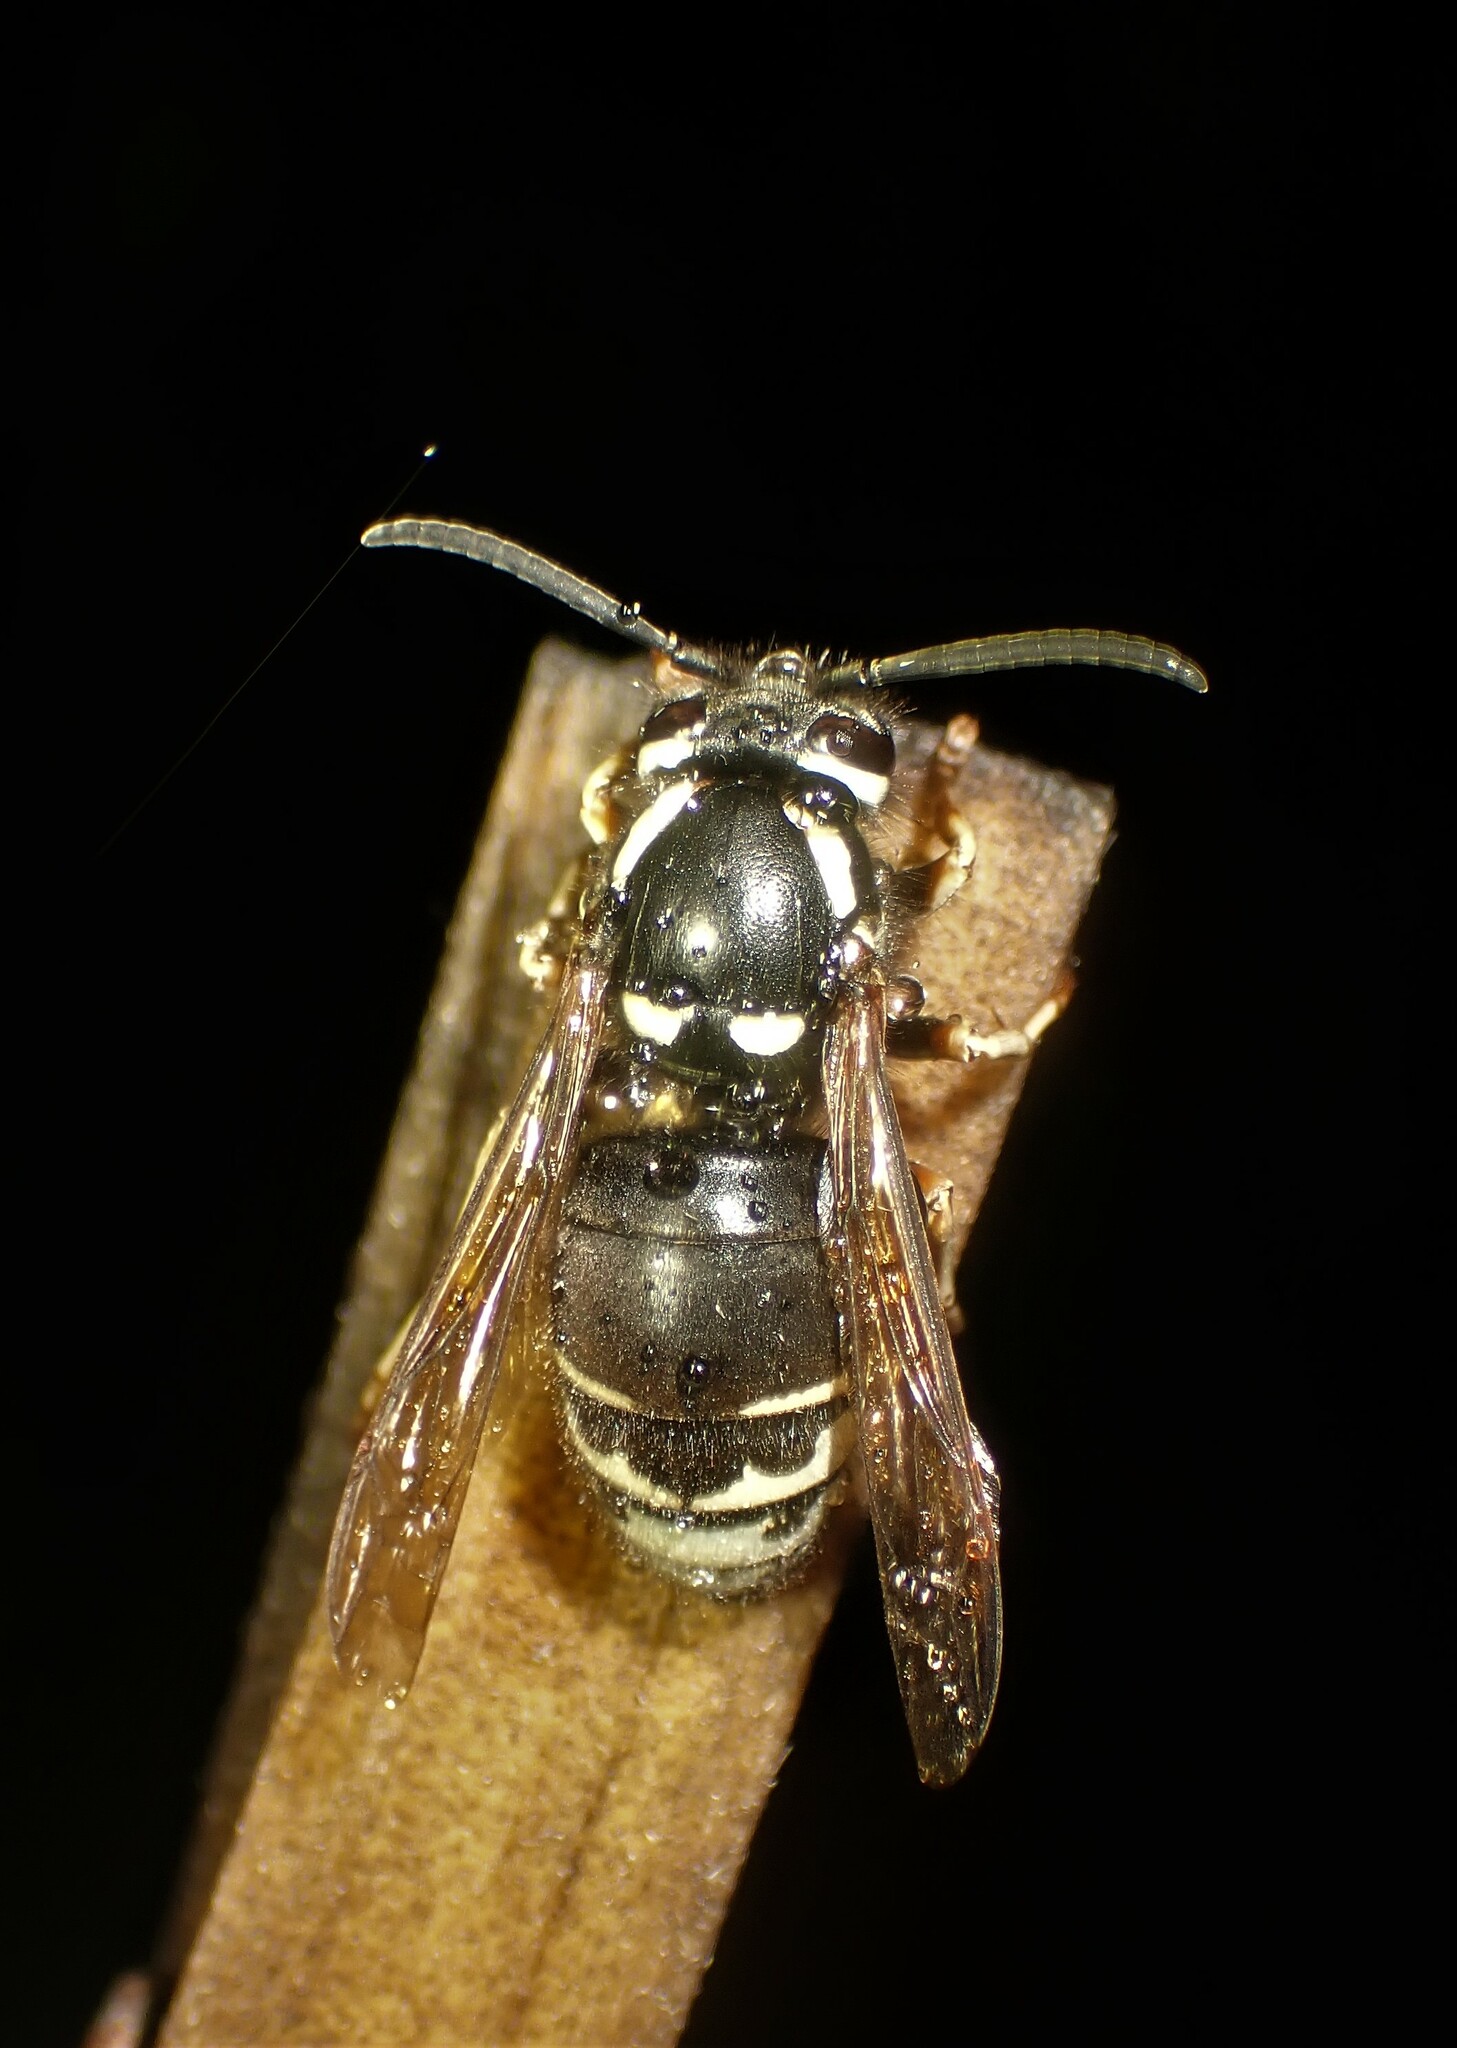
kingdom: Animalia
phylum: Arthropoda
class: Insecta
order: Hymenoptera
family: Vespidae
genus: Vespula
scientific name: Vespula consobrina
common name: Blackjacket
